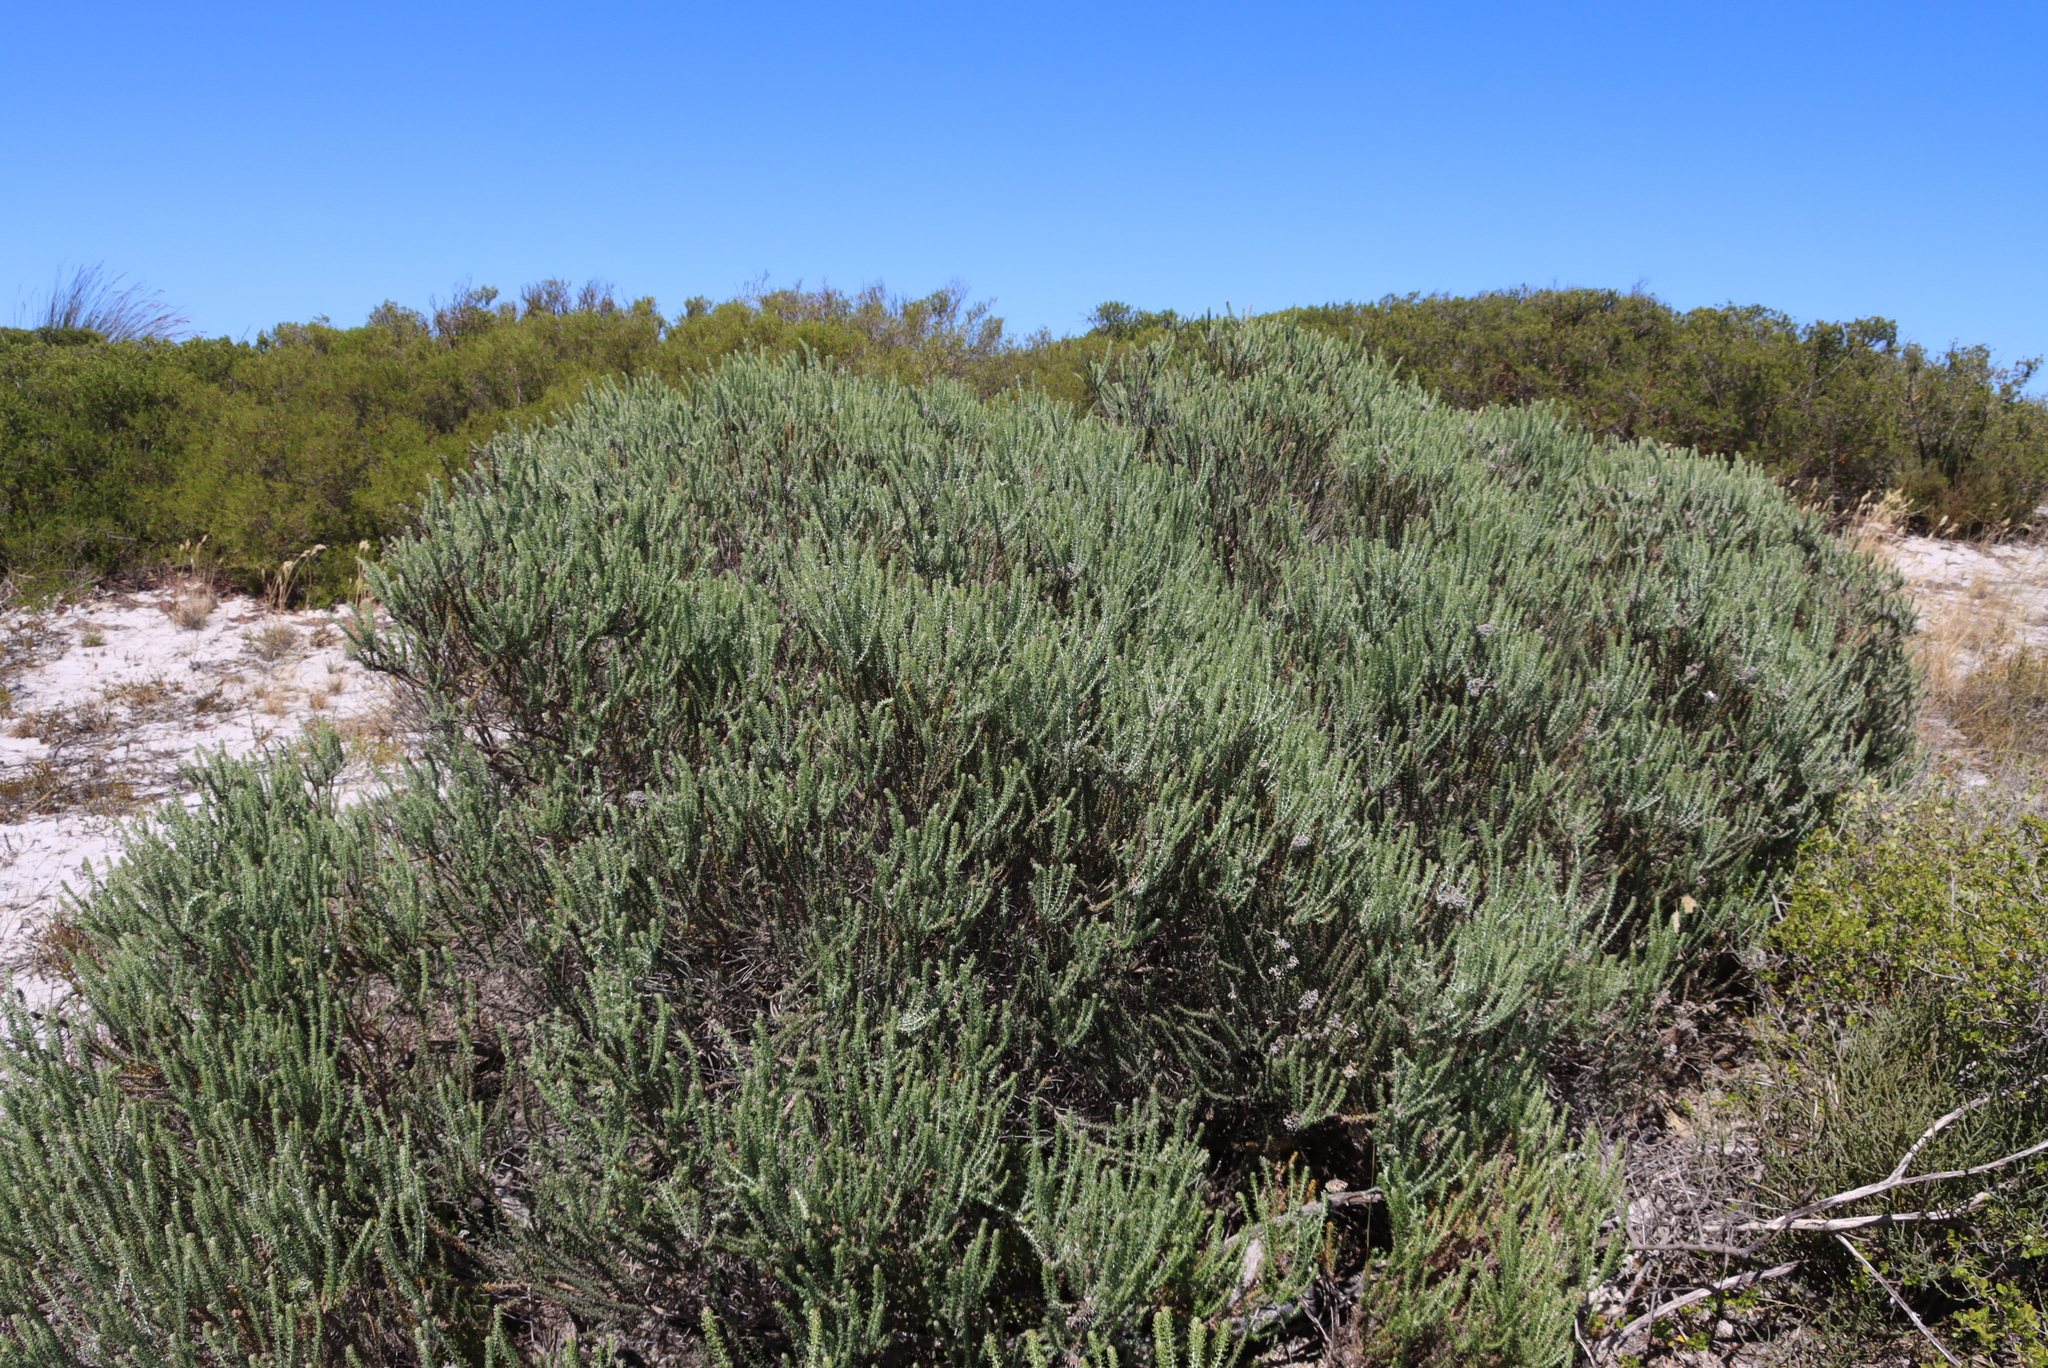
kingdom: Plantae
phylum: Tracheophyta
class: Magnoliopsida
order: Asterales
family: Asteraceae
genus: Metalasia
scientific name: Metalasia muricata
